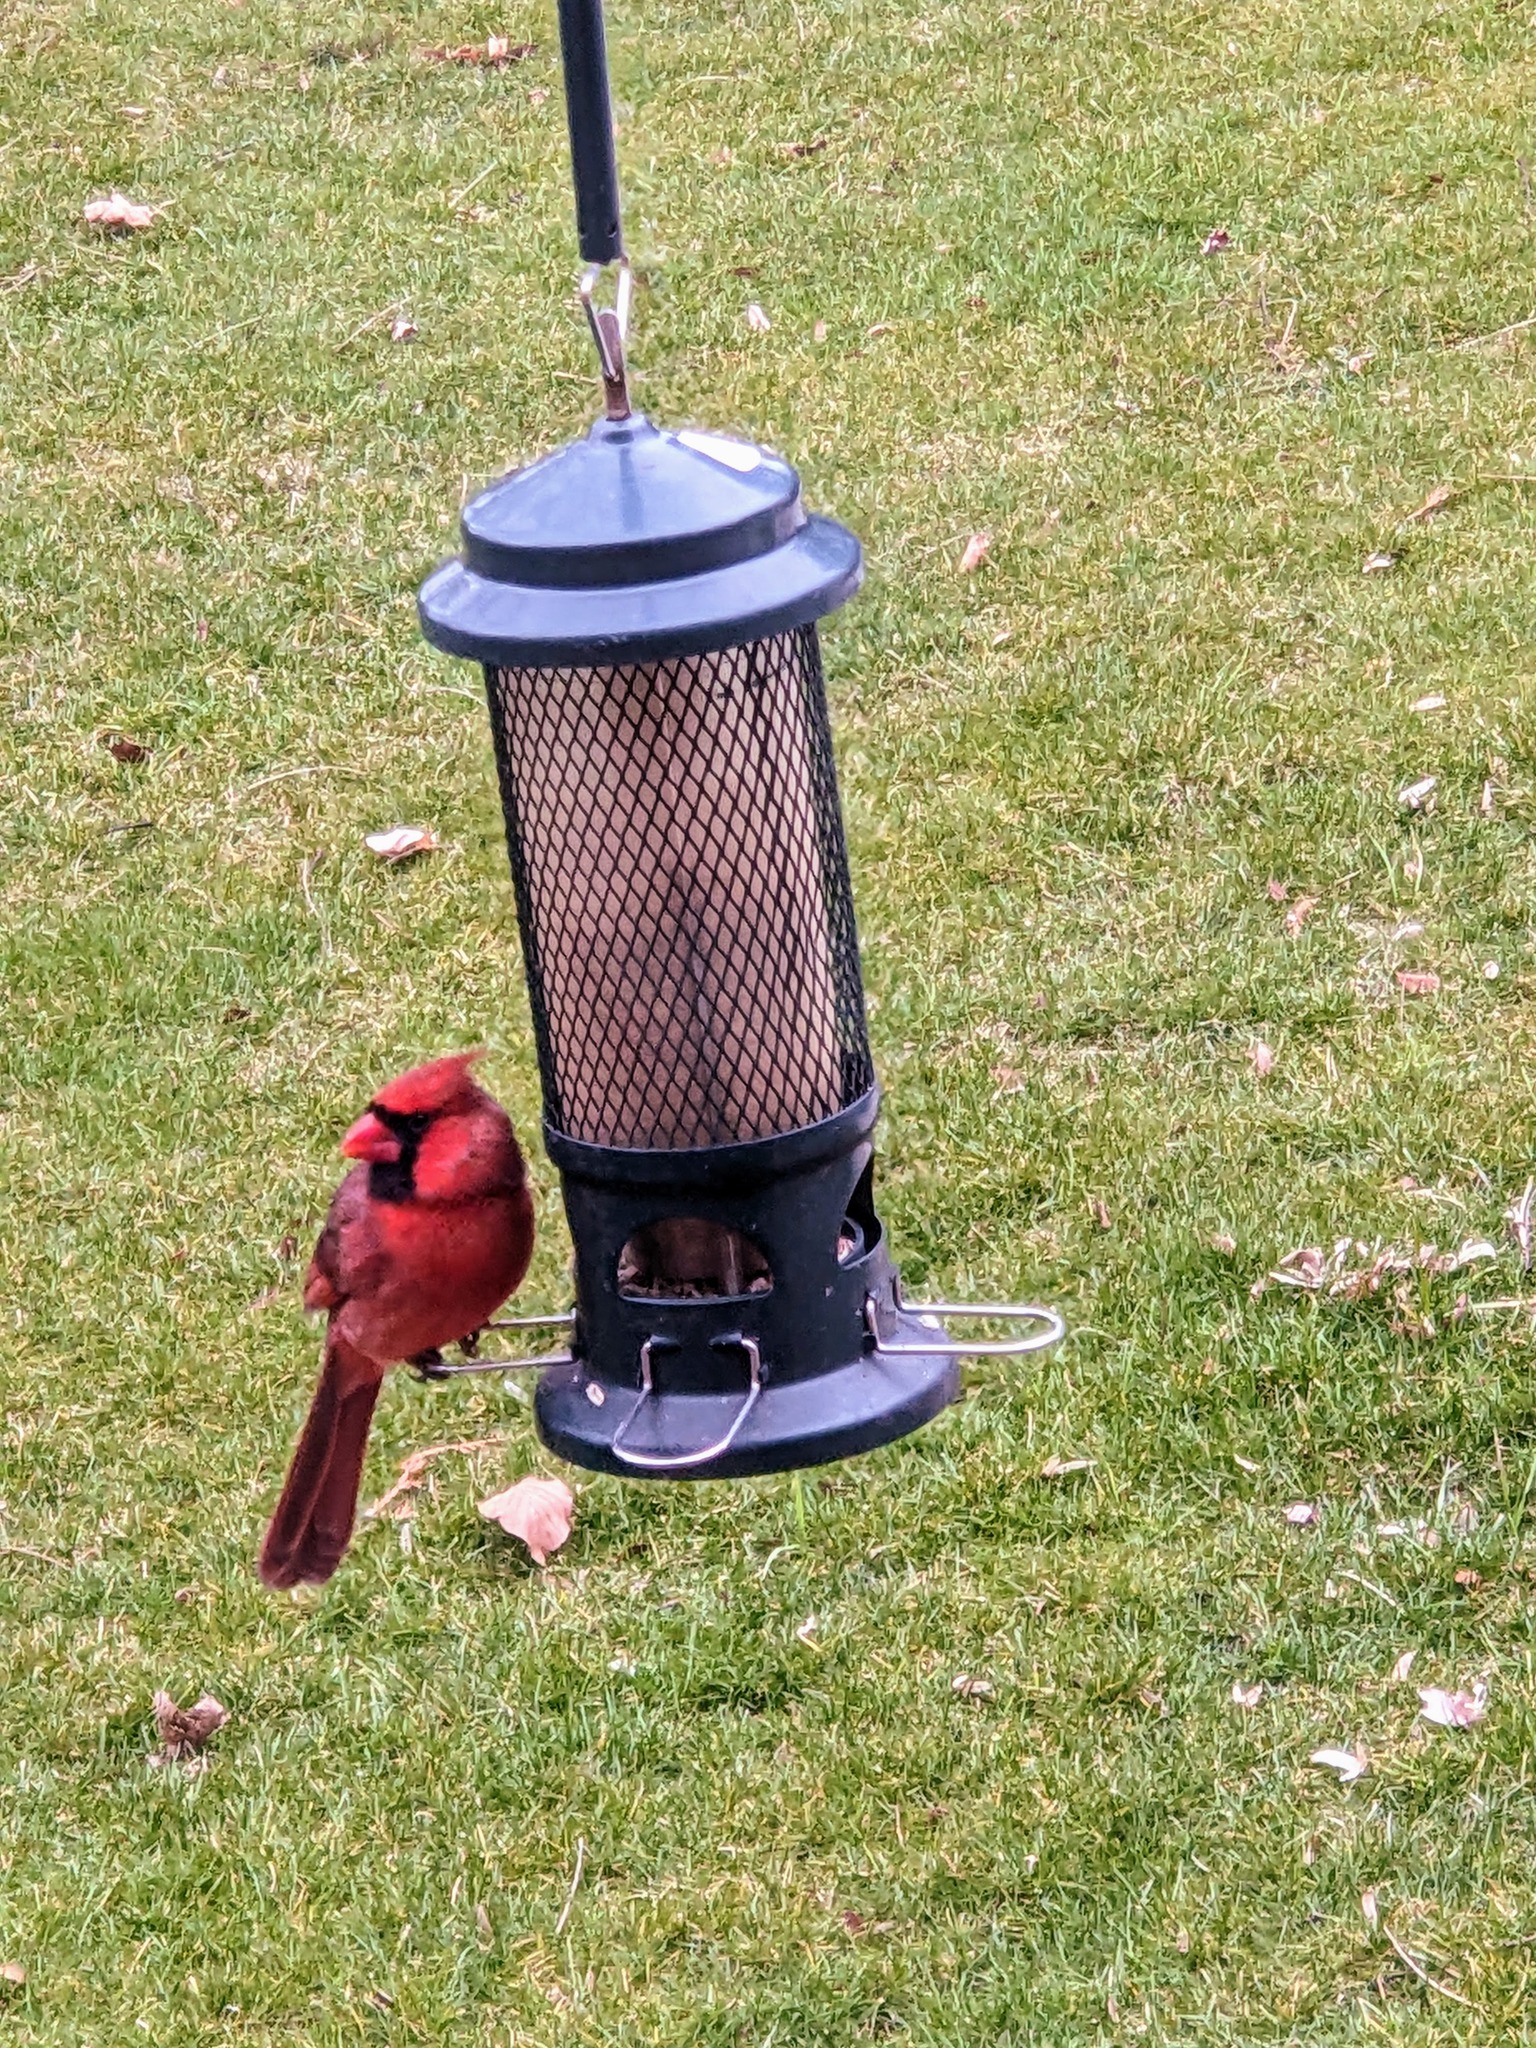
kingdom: Animalia
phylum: Chordata
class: Aves
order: Passeriformes
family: Cardinalidae
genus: Cardinalis
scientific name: Cardinalis cardinalis
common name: Northern cardinal
